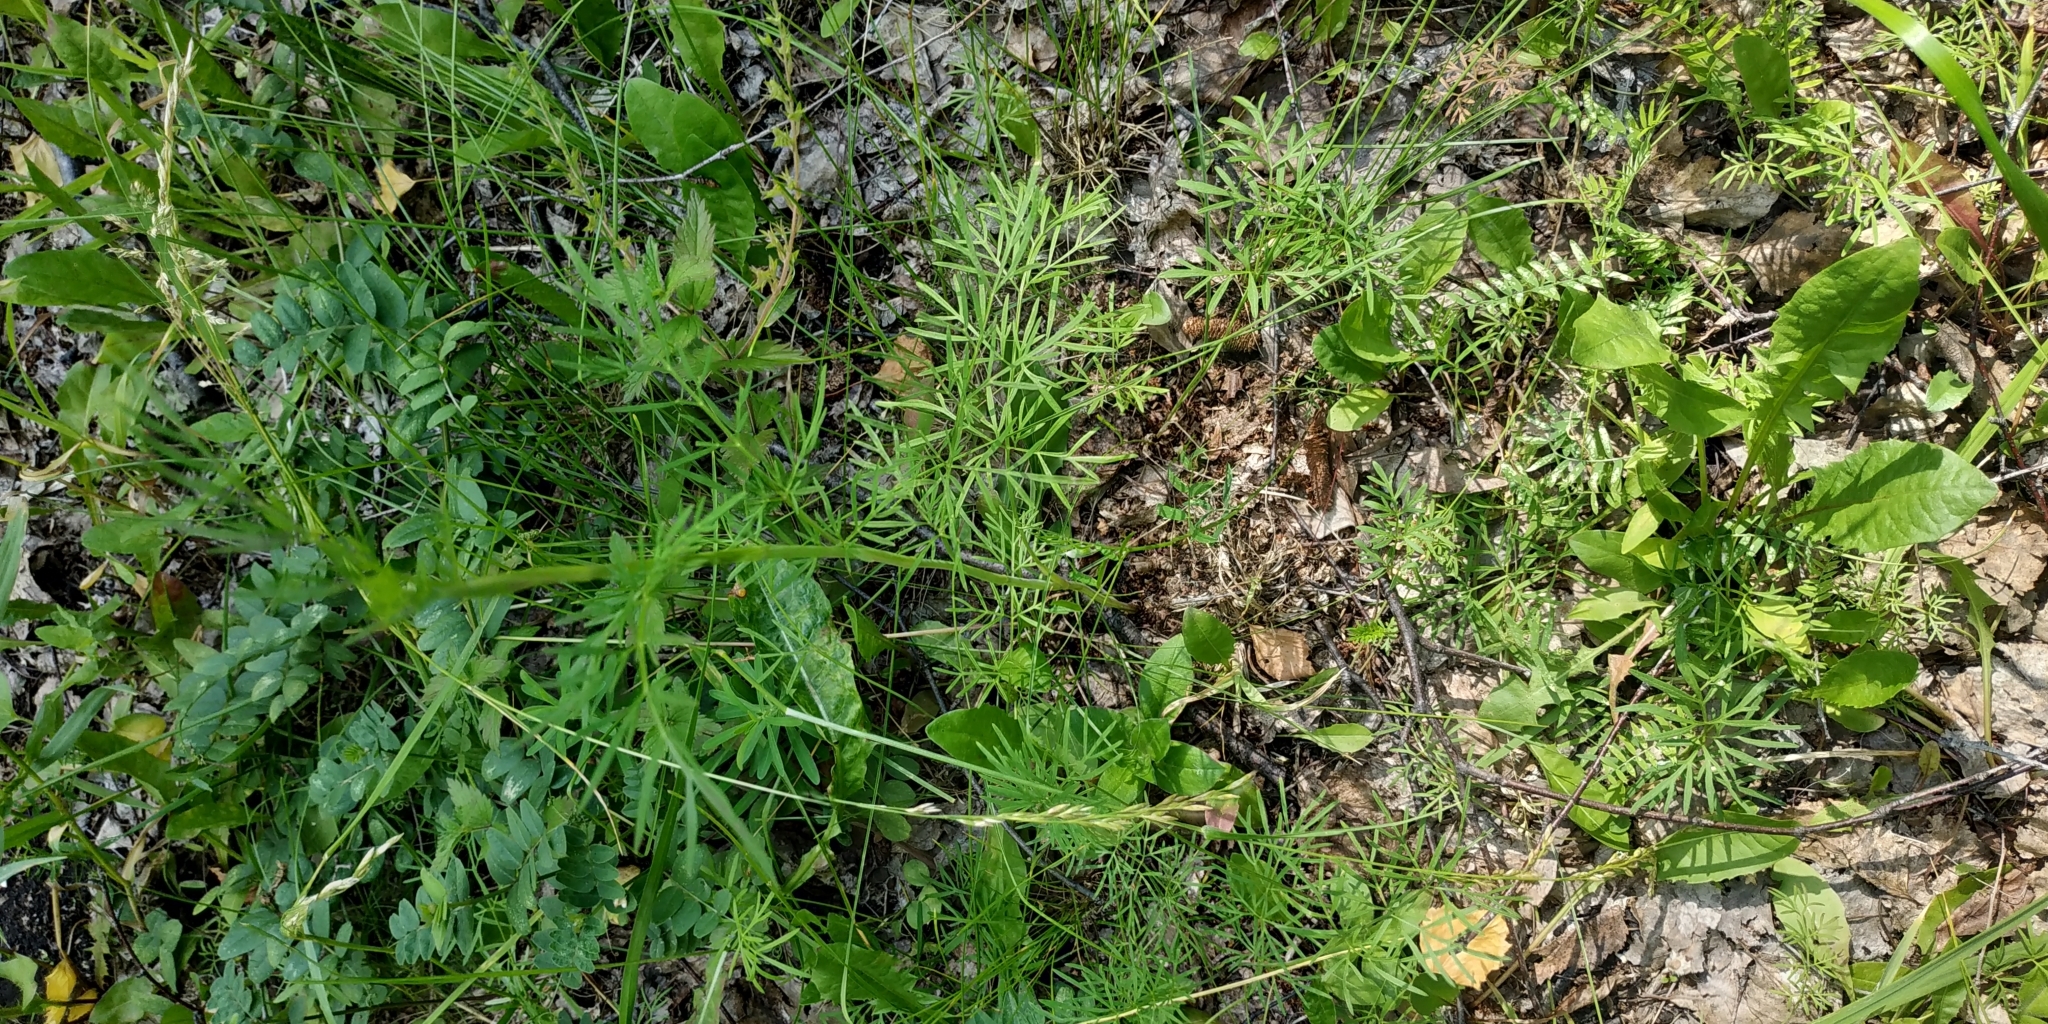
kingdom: Plantae
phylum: Tracheophyta
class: Magnoliopsida
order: Apiales
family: Apiaceae
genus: Kadenia
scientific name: Kadenia dubia
